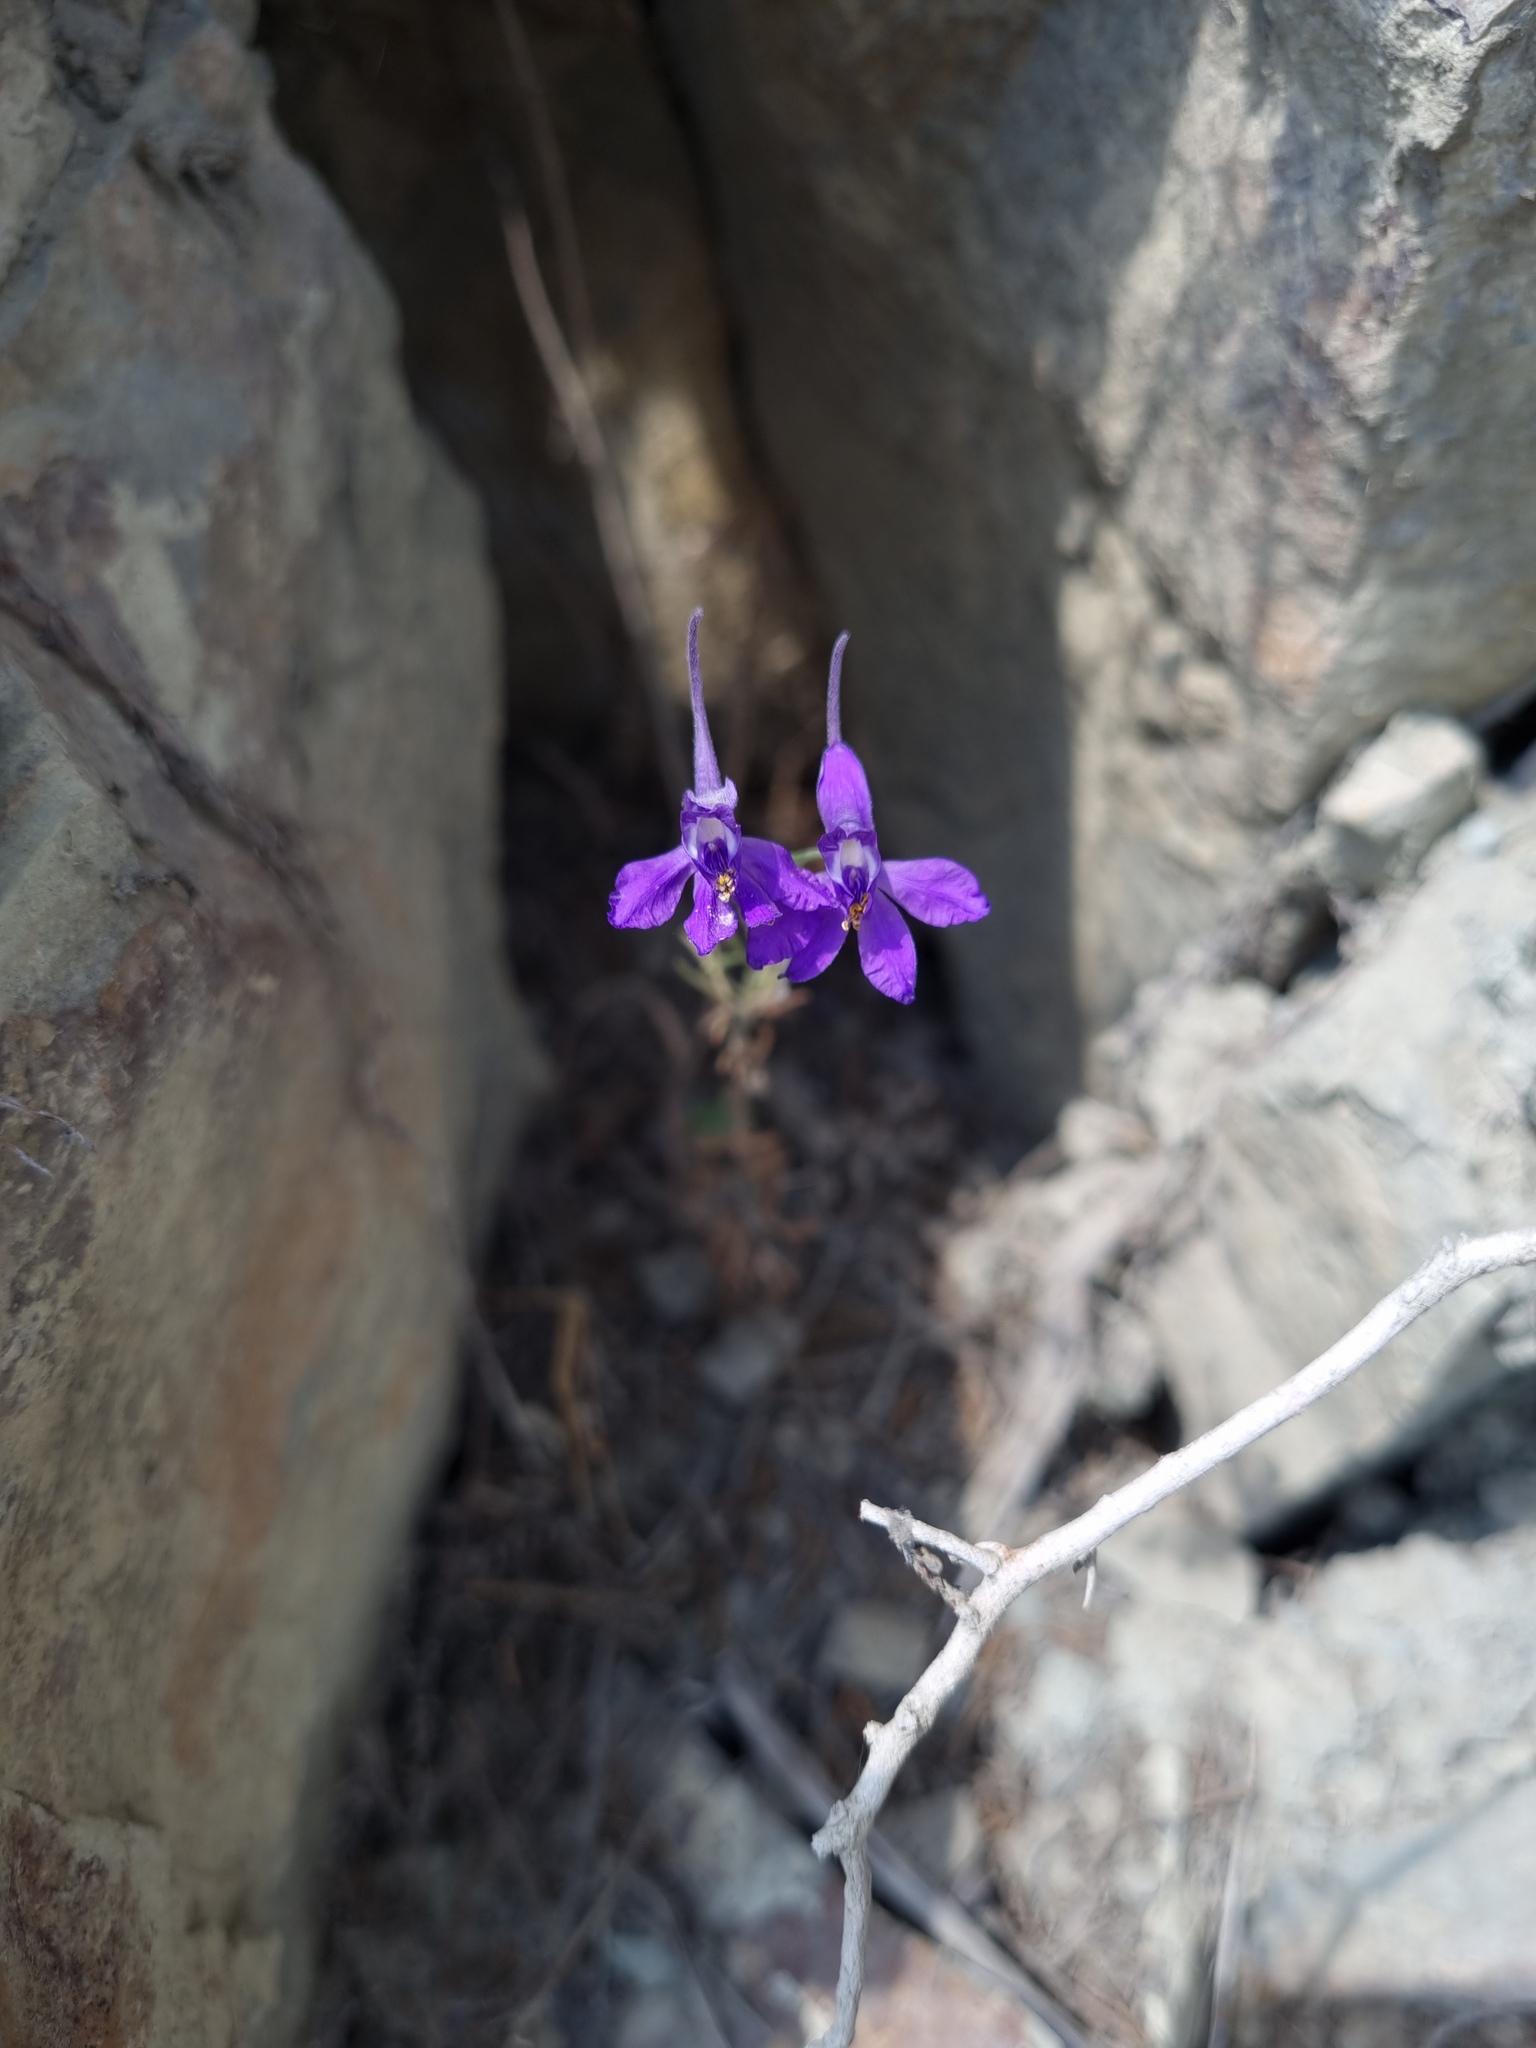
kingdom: Plantae
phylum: Tracheophyta
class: Magnoliopsida
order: Ranunculales
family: Ranunculaceae
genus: Delphinium
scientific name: Delphinium consolida
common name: Branching larkspur
